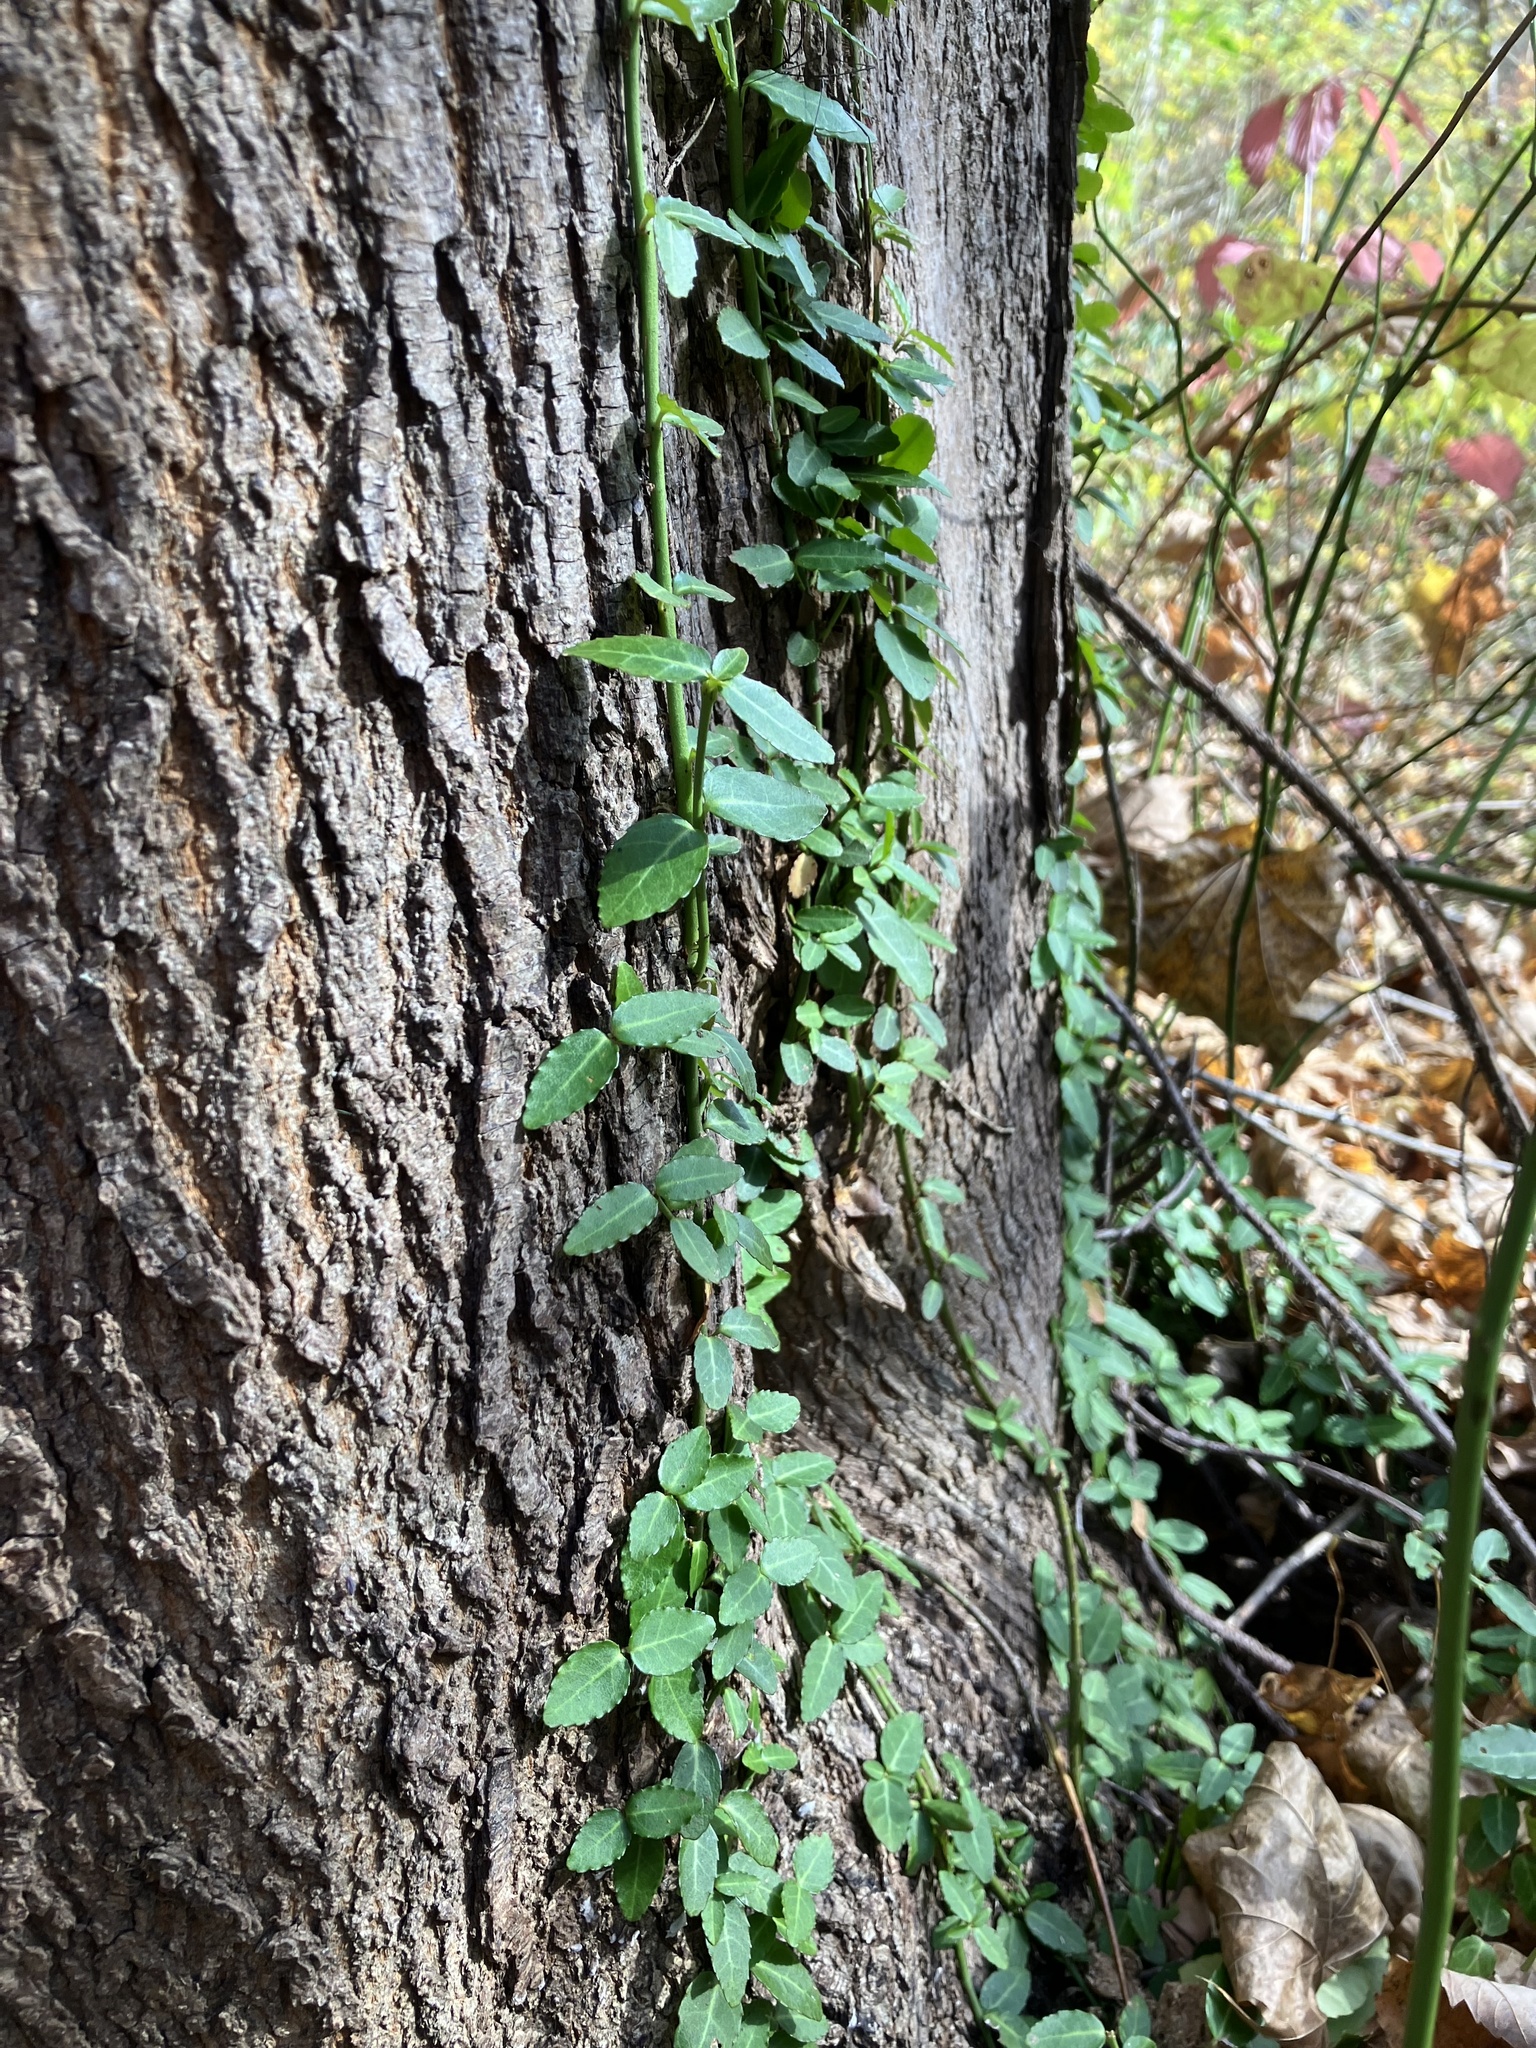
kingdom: Plantae
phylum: Tracheophyta
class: Magnoliopsida
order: Celastrales
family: Celastraceae
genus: Euonymus
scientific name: Euonymus fortunei
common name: Climbing euonymus
